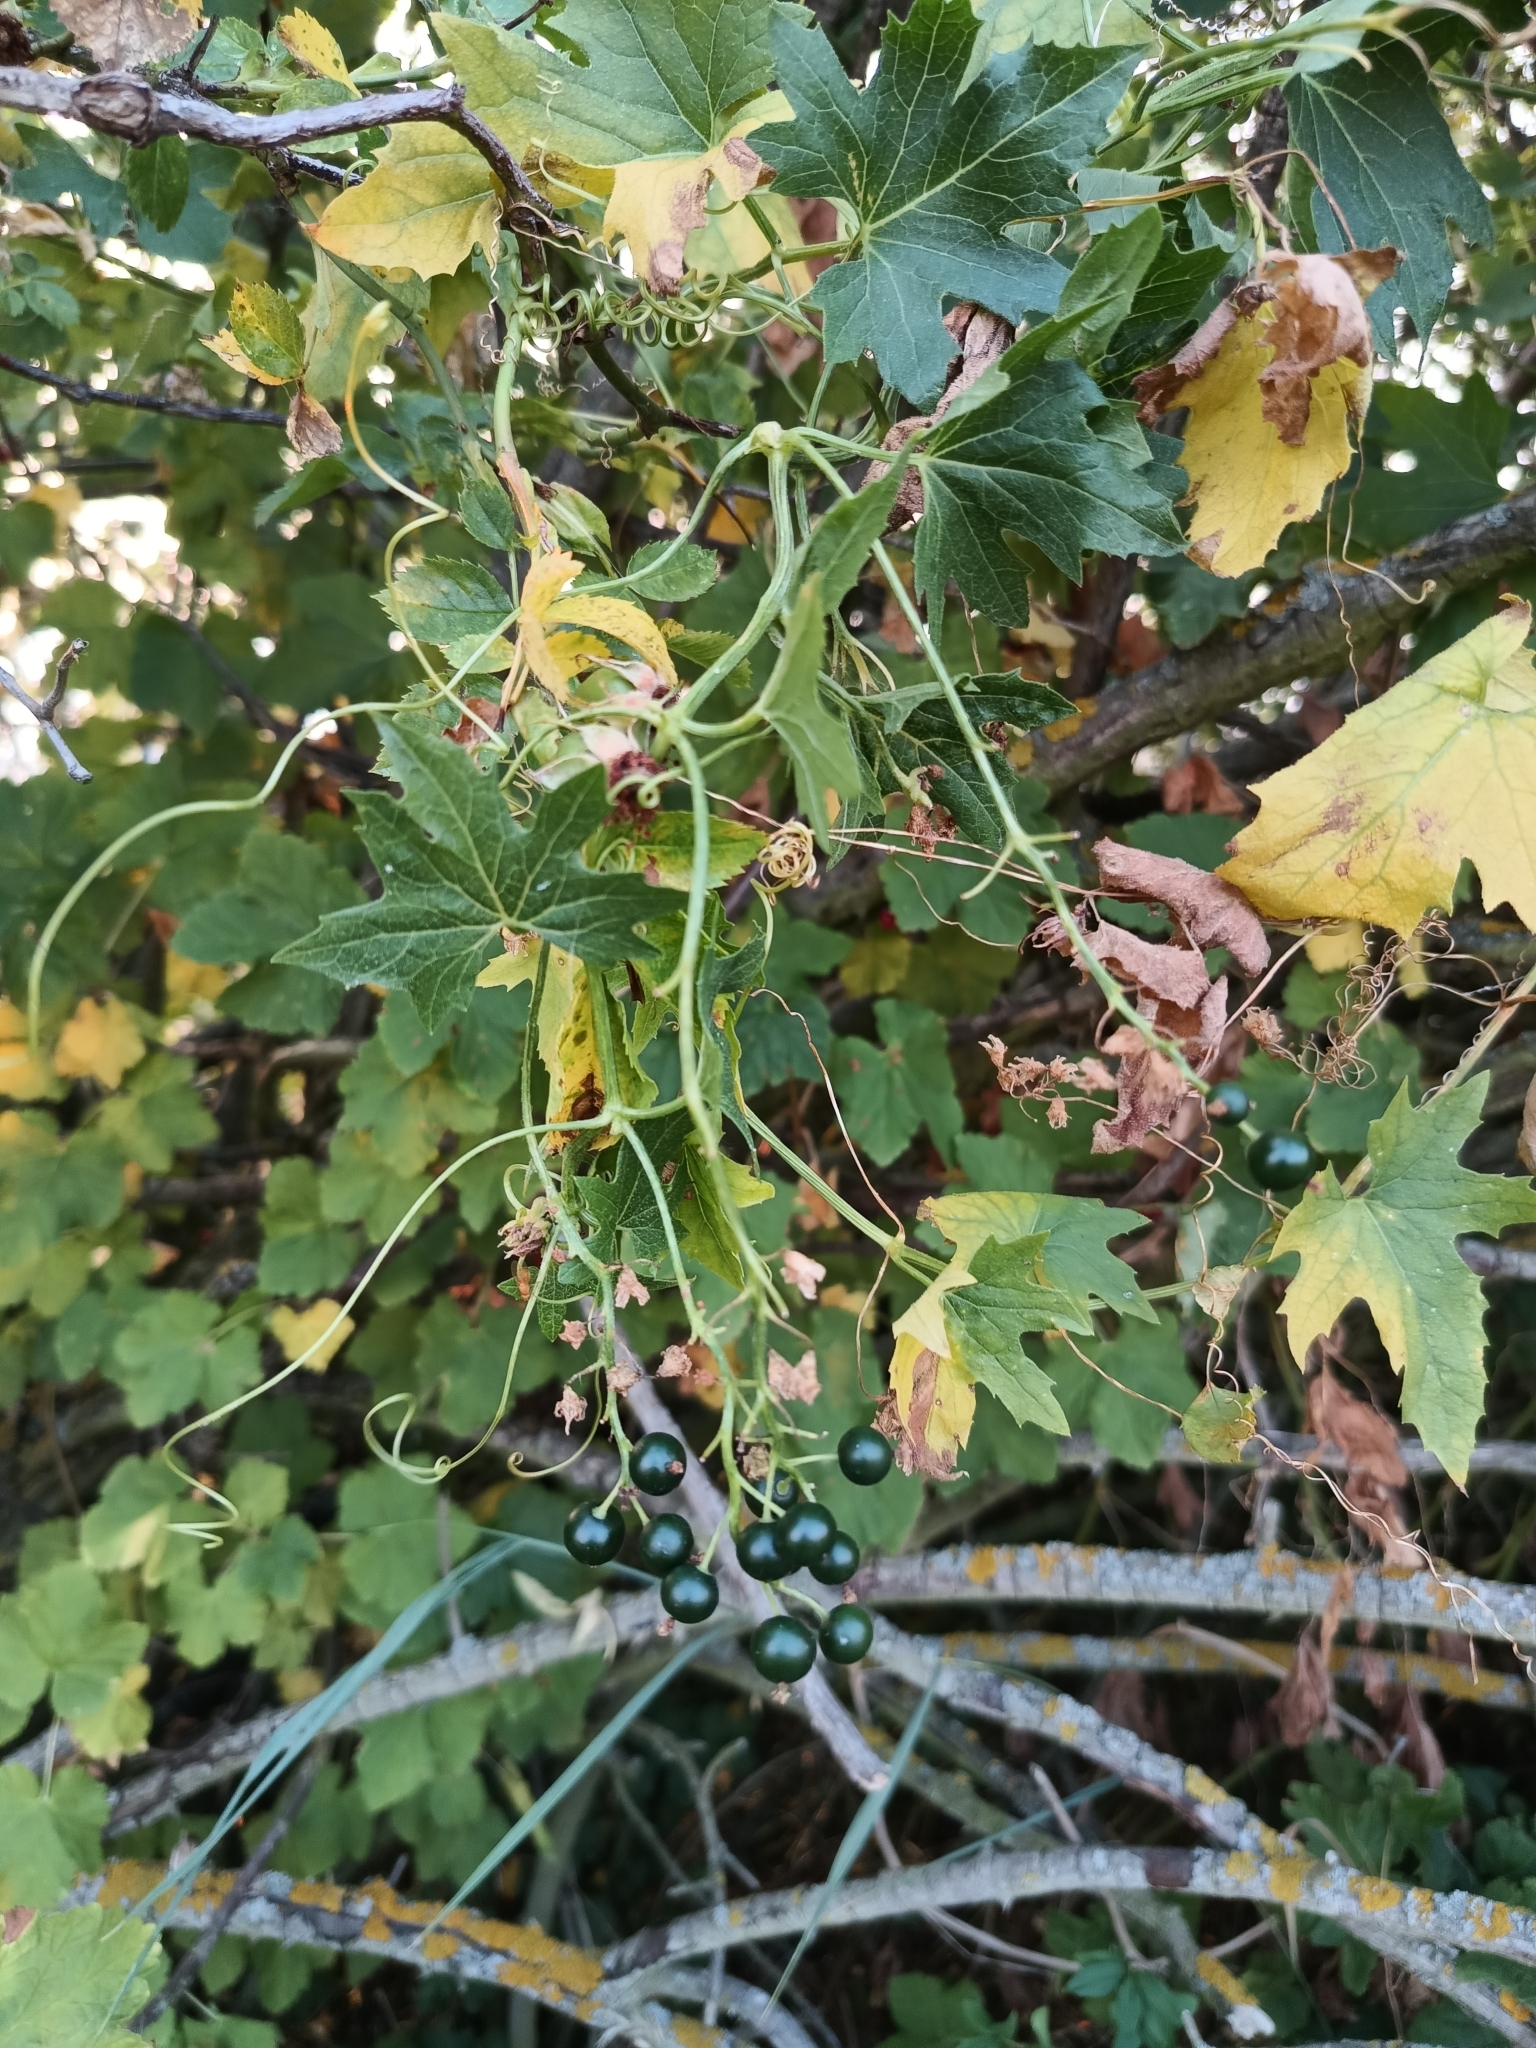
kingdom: Plantae
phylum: Tracheophyta
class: Magnoliopsida
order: Cucurbitales
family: Cucurbitaceae
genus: Bryonia
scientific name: Bryonia alba
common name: White bryony
